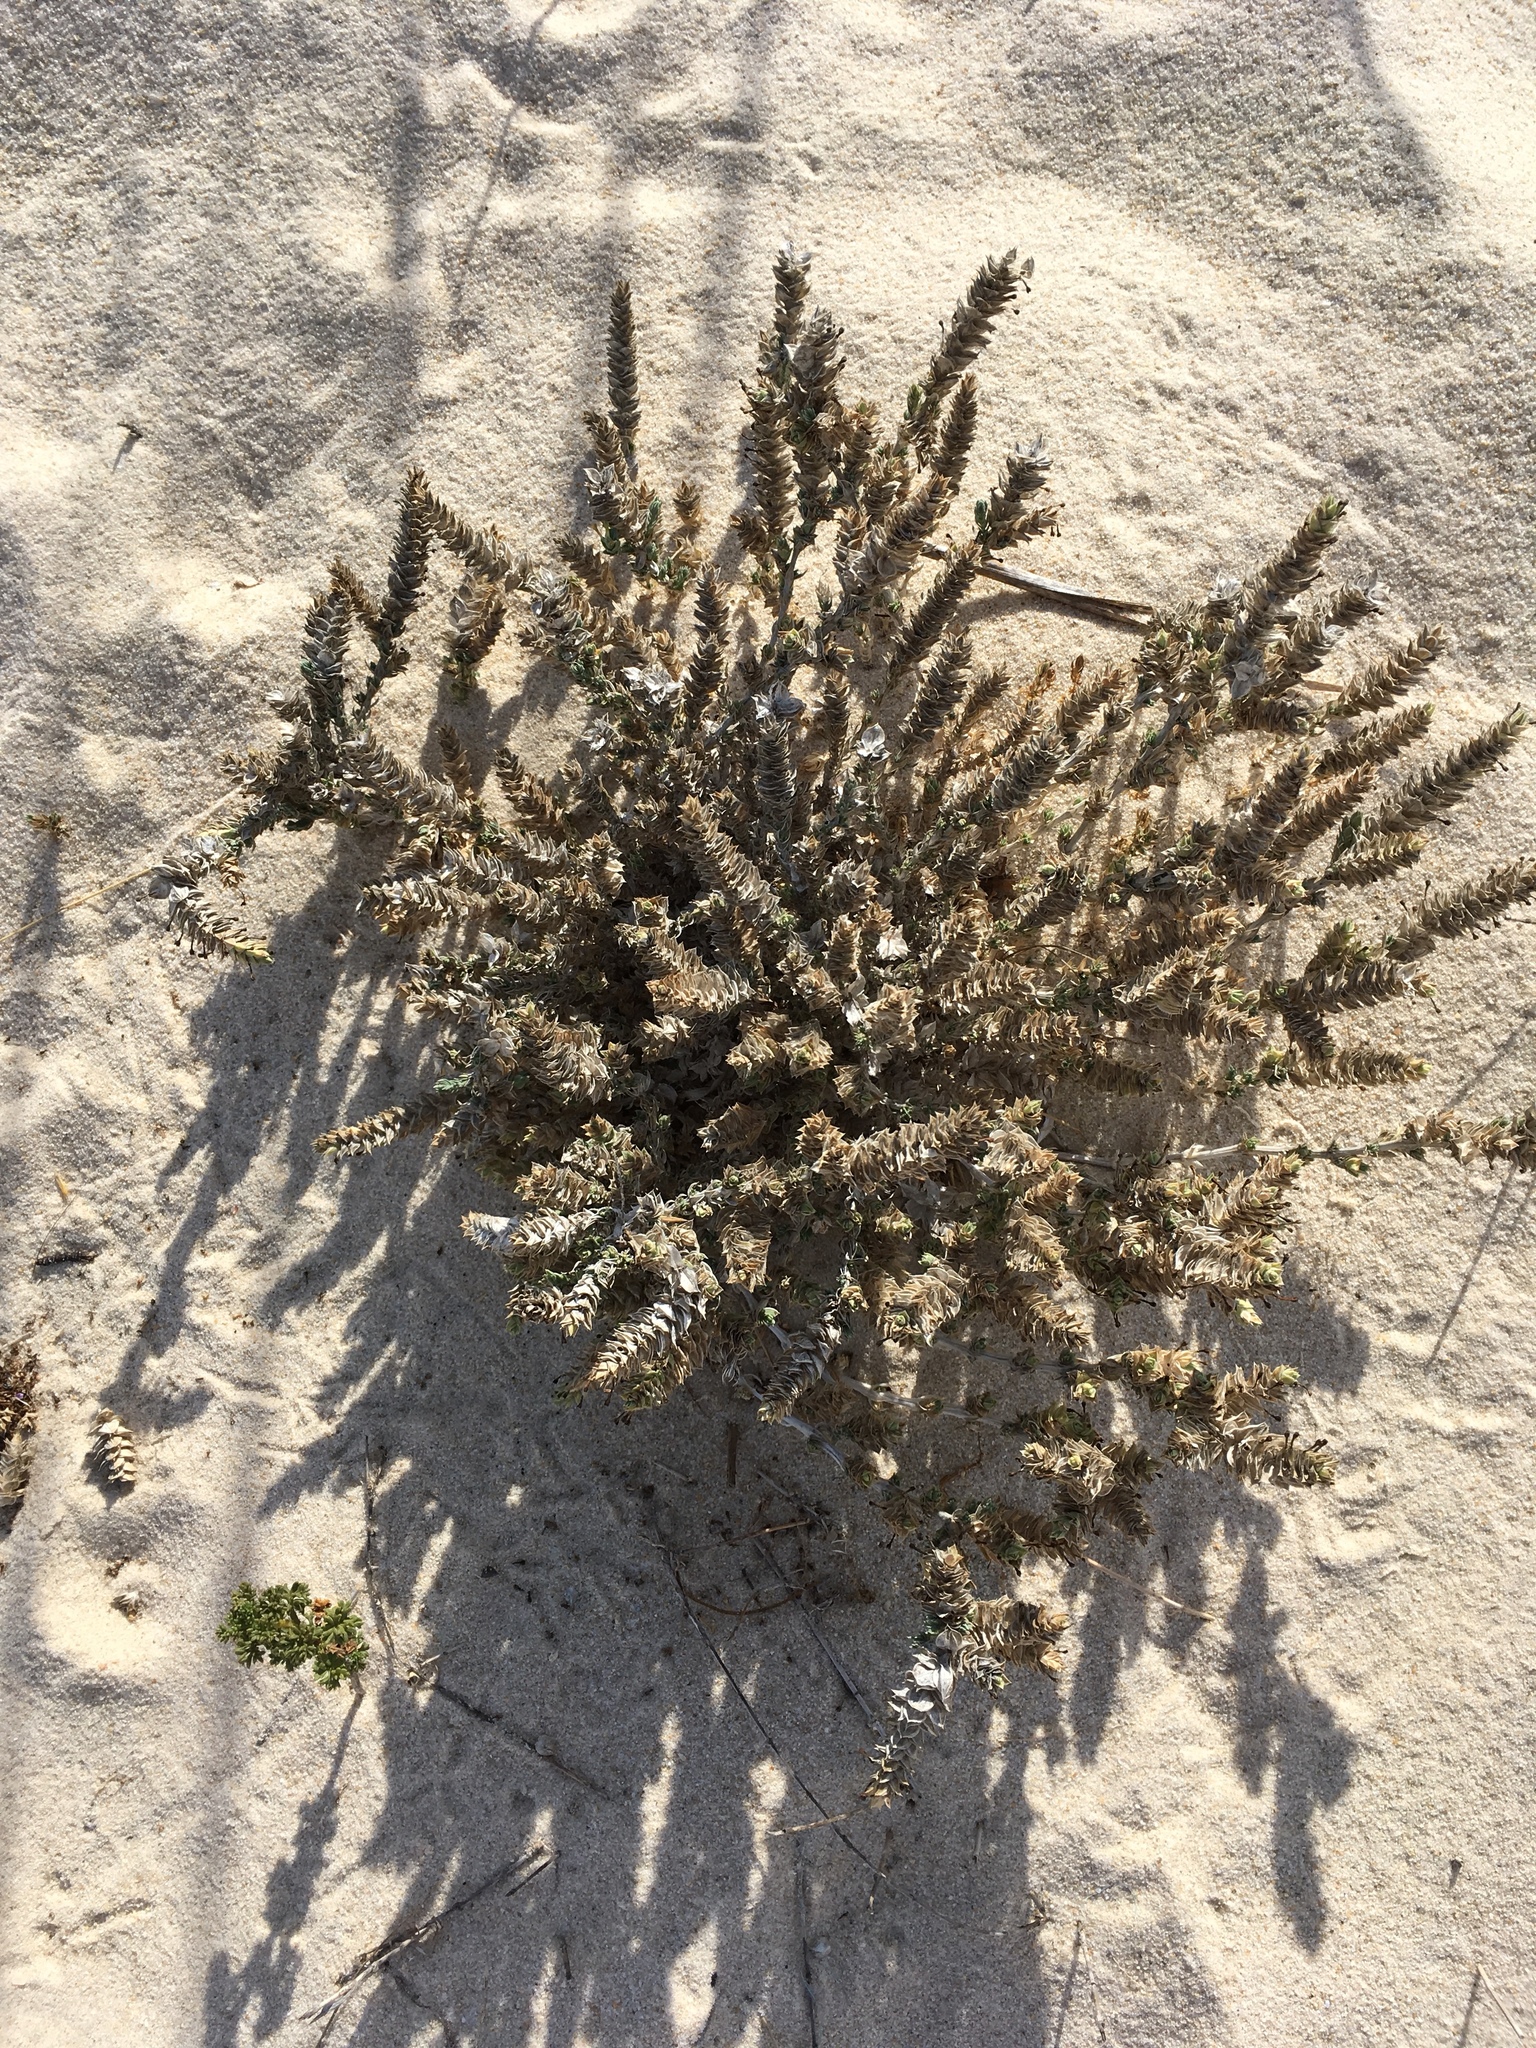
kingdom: Plantae
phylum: Tracheophyta
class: Magnoliopsida
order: Gentianales
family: Rubiaceae
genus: Crucianella
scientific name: Crucianella maritima
